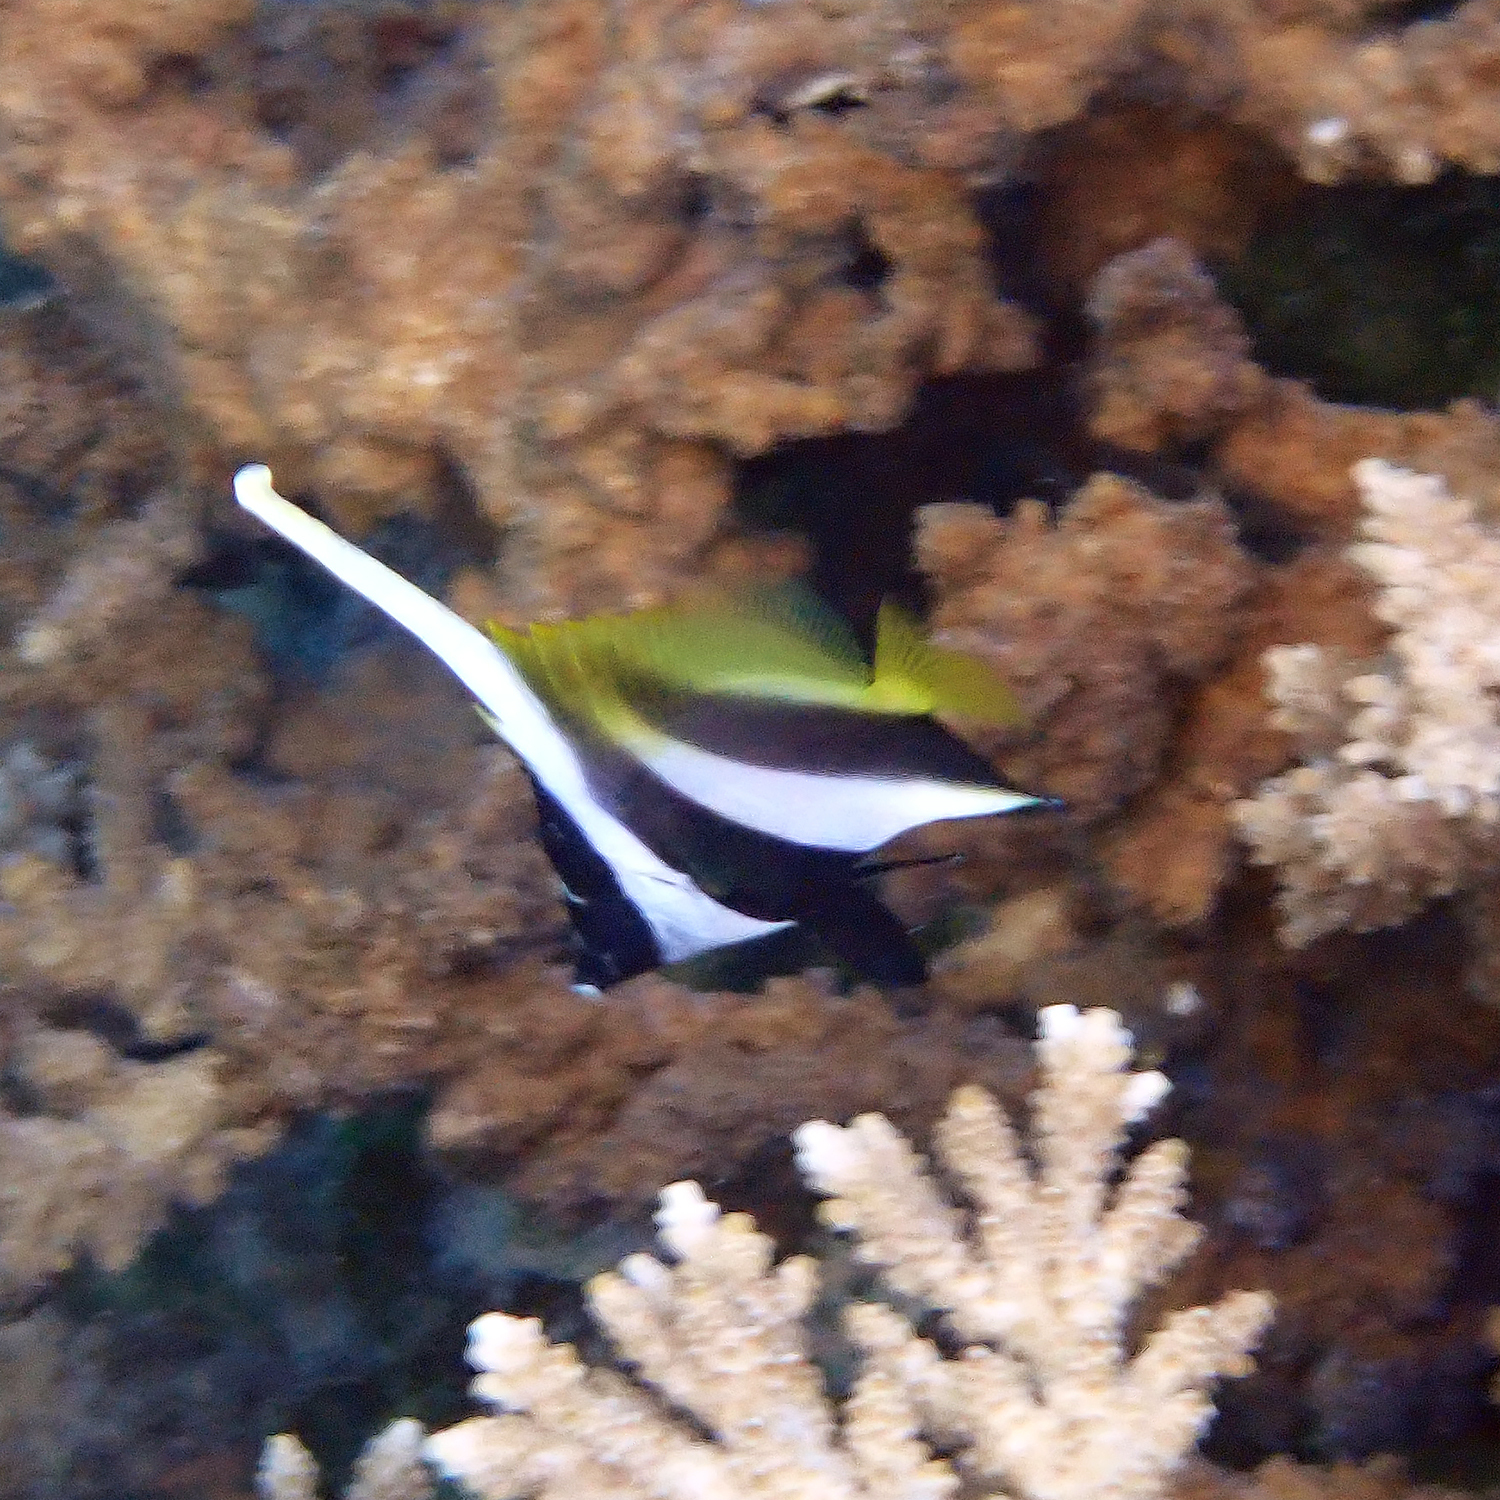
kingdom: Animalia
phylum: Chordata
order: Perciformes
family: Chaetodontidae
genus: Heniochus
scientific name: Heniochus monoceros
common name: Masked bannerfish
